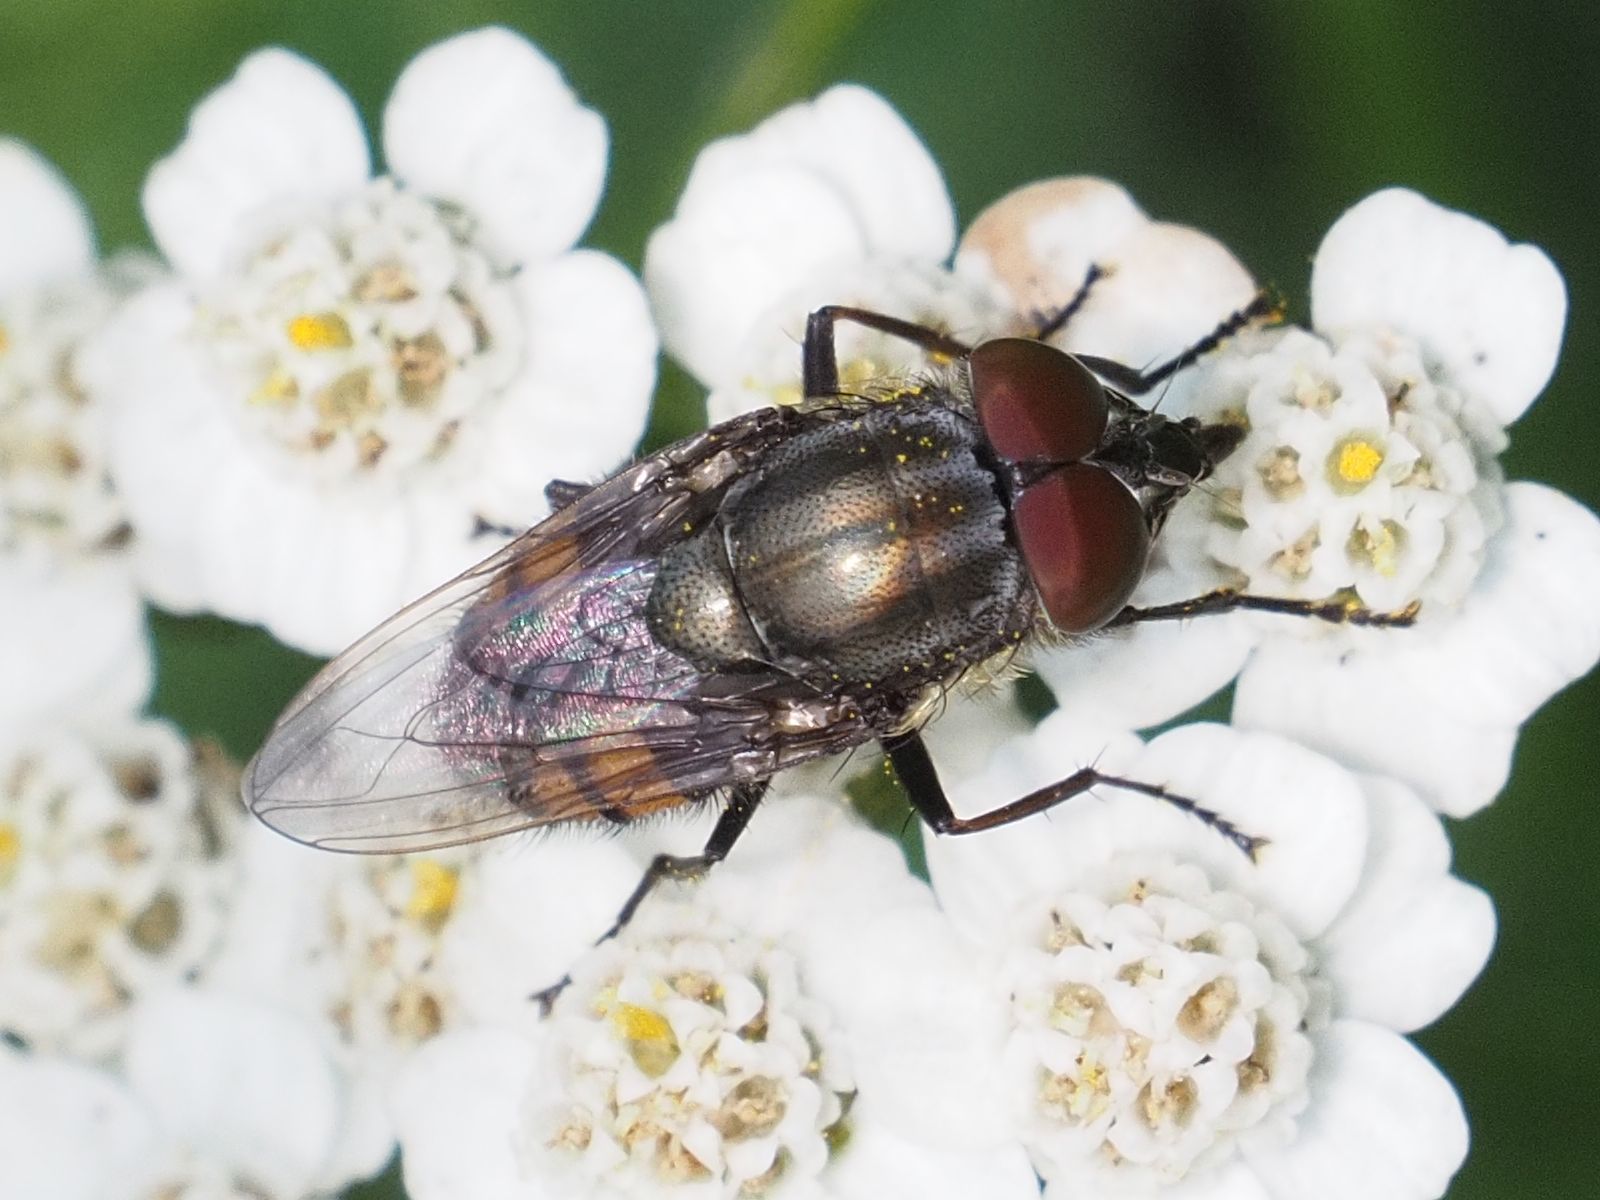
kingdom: Animalia
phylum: Arthropoda
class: Insecta
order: Diptera
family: Calliphoridae
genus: Stomorhina
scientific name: Stomorhina lunata
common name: Locust blowfly
